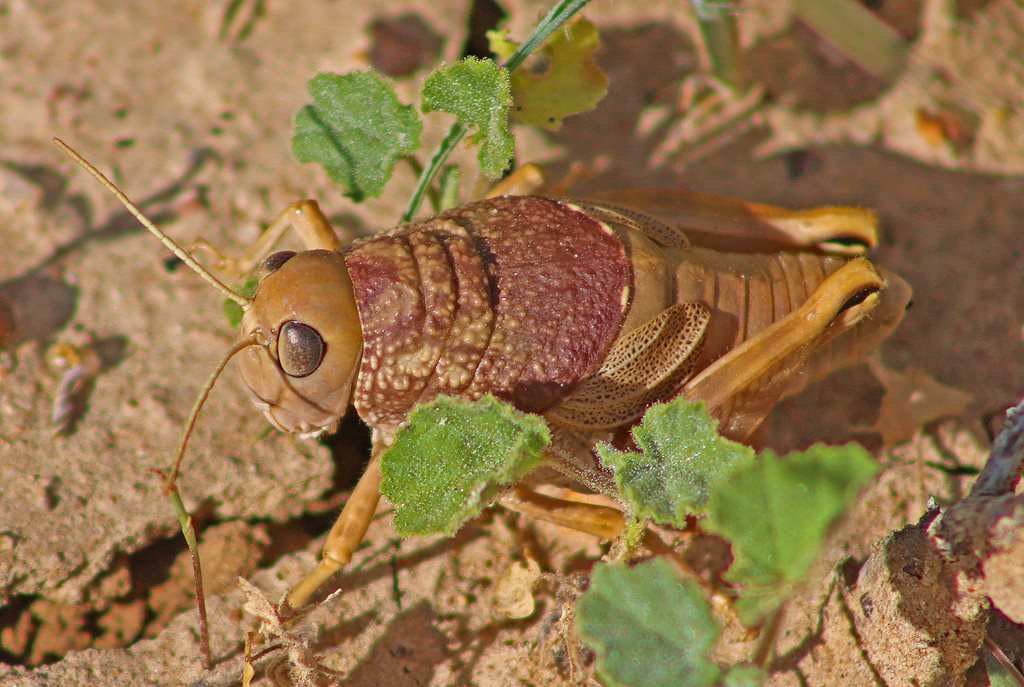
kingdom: Animalia
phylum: Arthropoda
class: Insecta
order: Orthoptera
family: Acrididae
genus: Lagoonia
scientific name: Lagoonia
